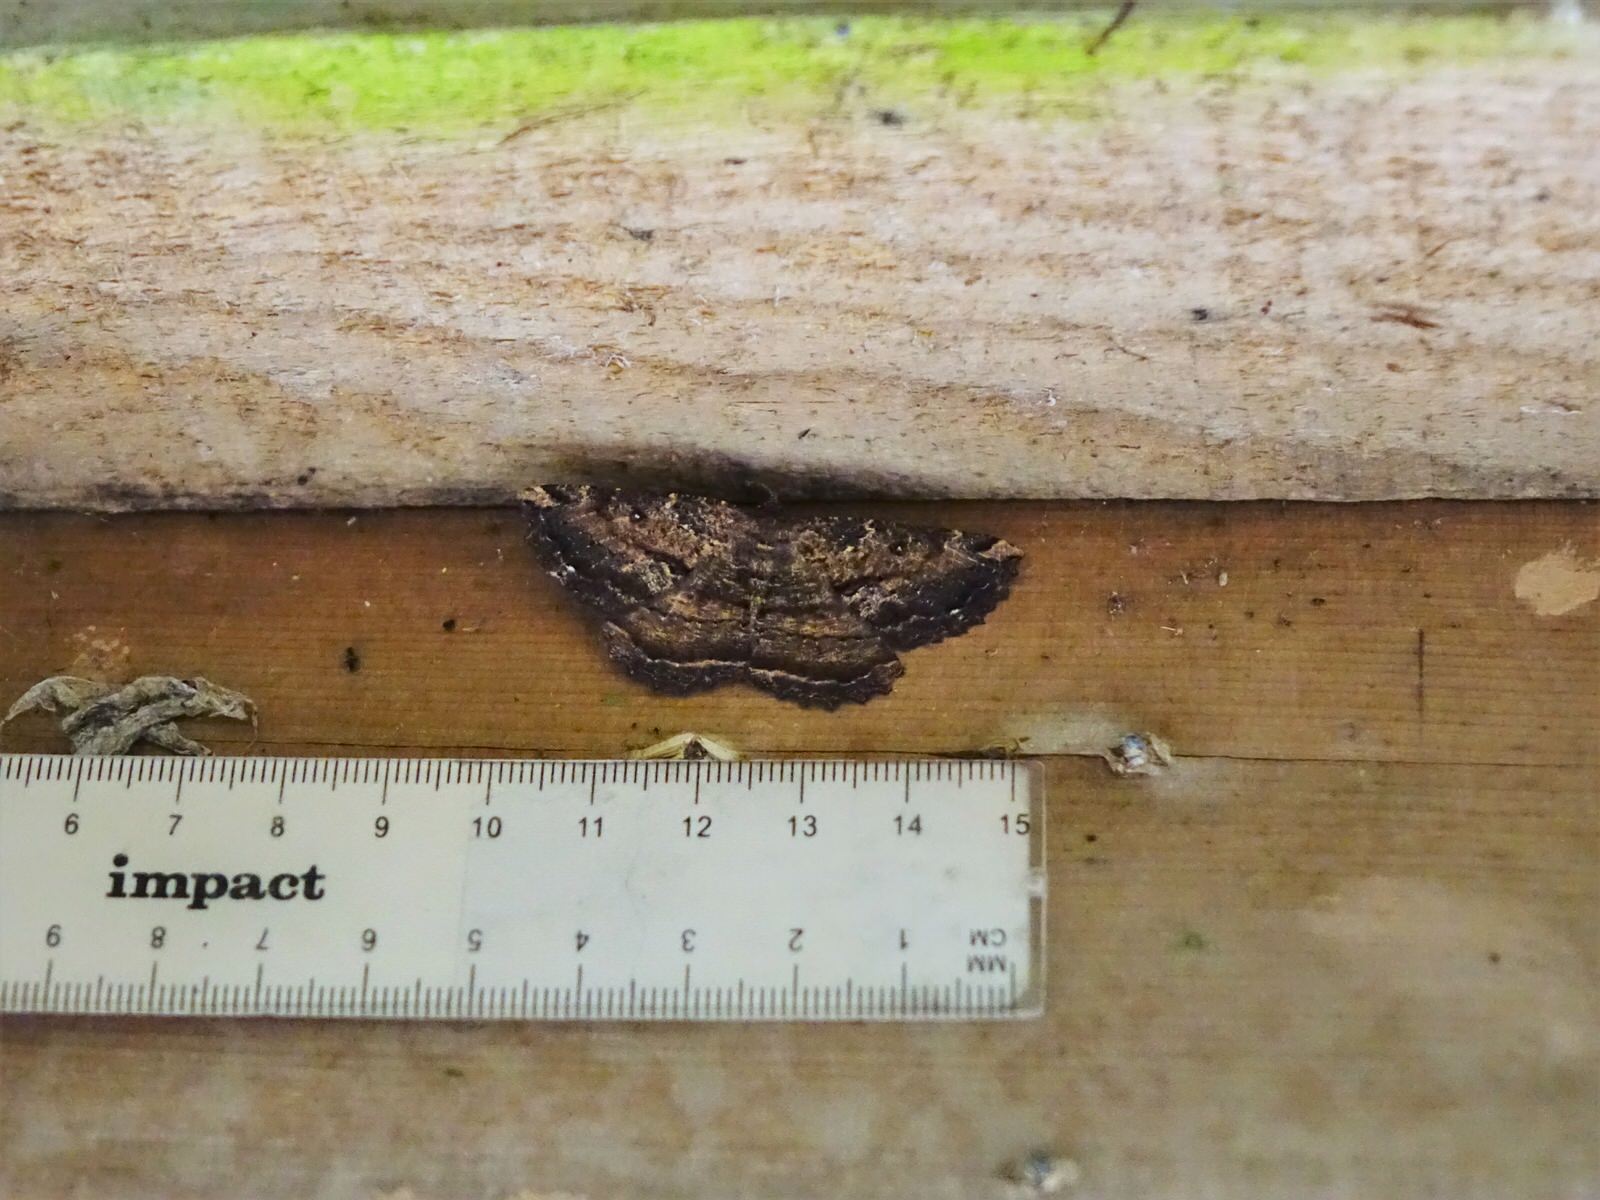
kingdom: Animalia
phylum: Arthropoda
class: Insecta
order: Lepidoptera
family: Geometridae
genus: Gellonia
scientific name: Gellonia dejectaria
